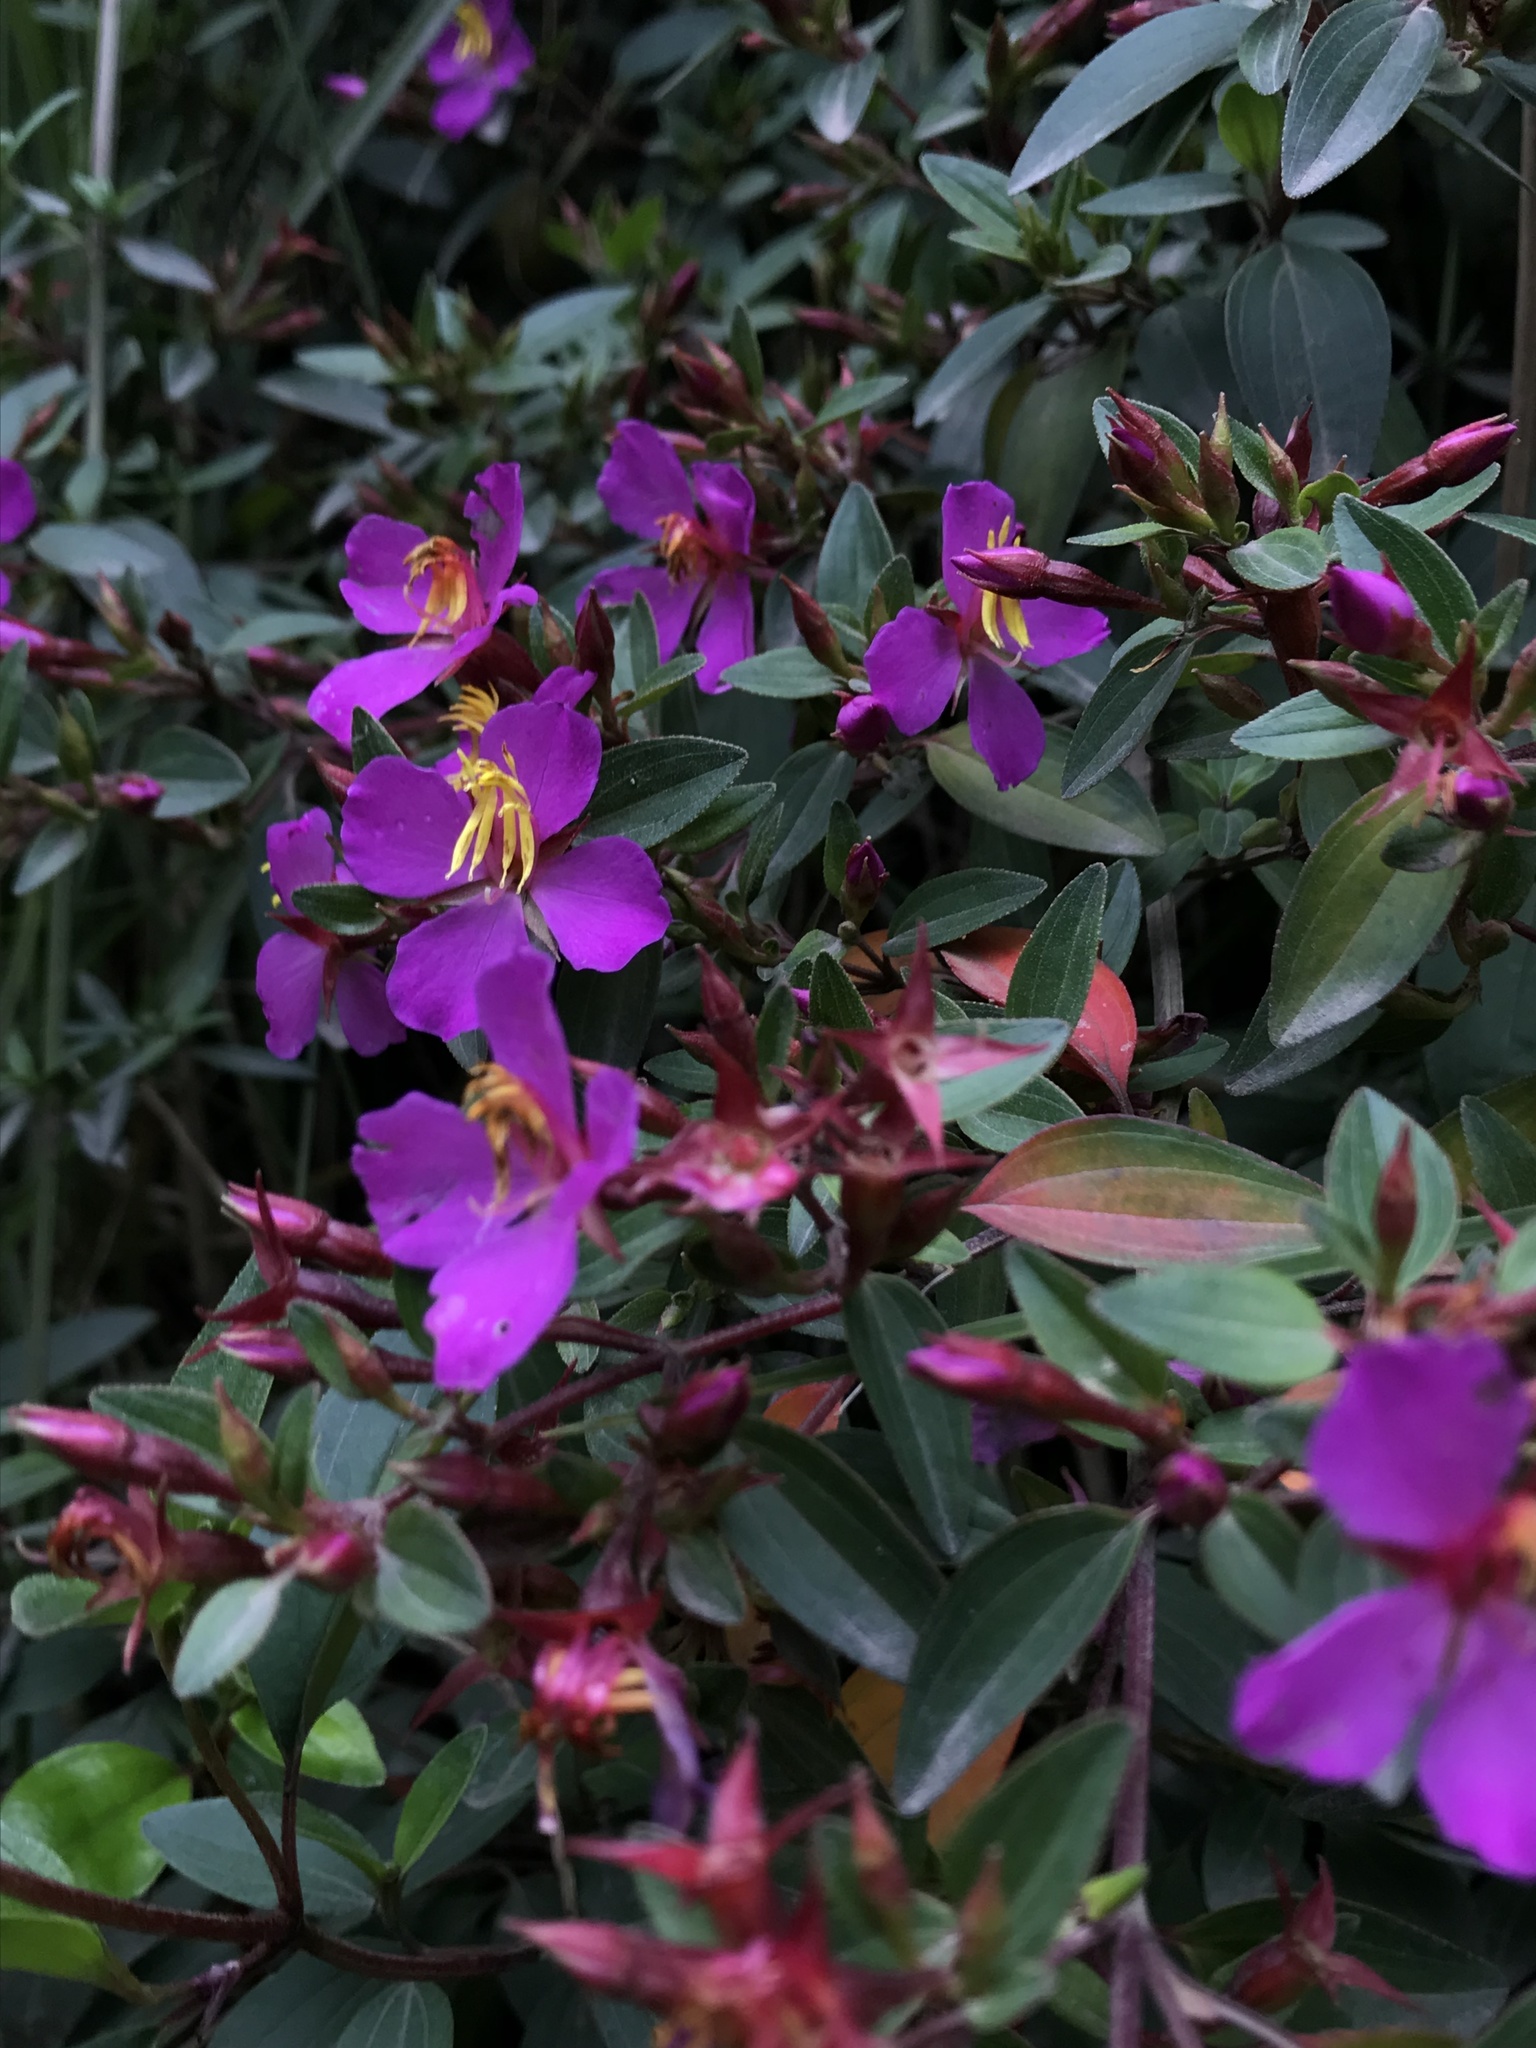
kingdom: Plantae
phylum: Tracheophyta
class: Magnoliopsida
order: Myrtales
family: Melastomataceae
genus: Monochaetum
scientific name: Monochaetum myrtoideum
